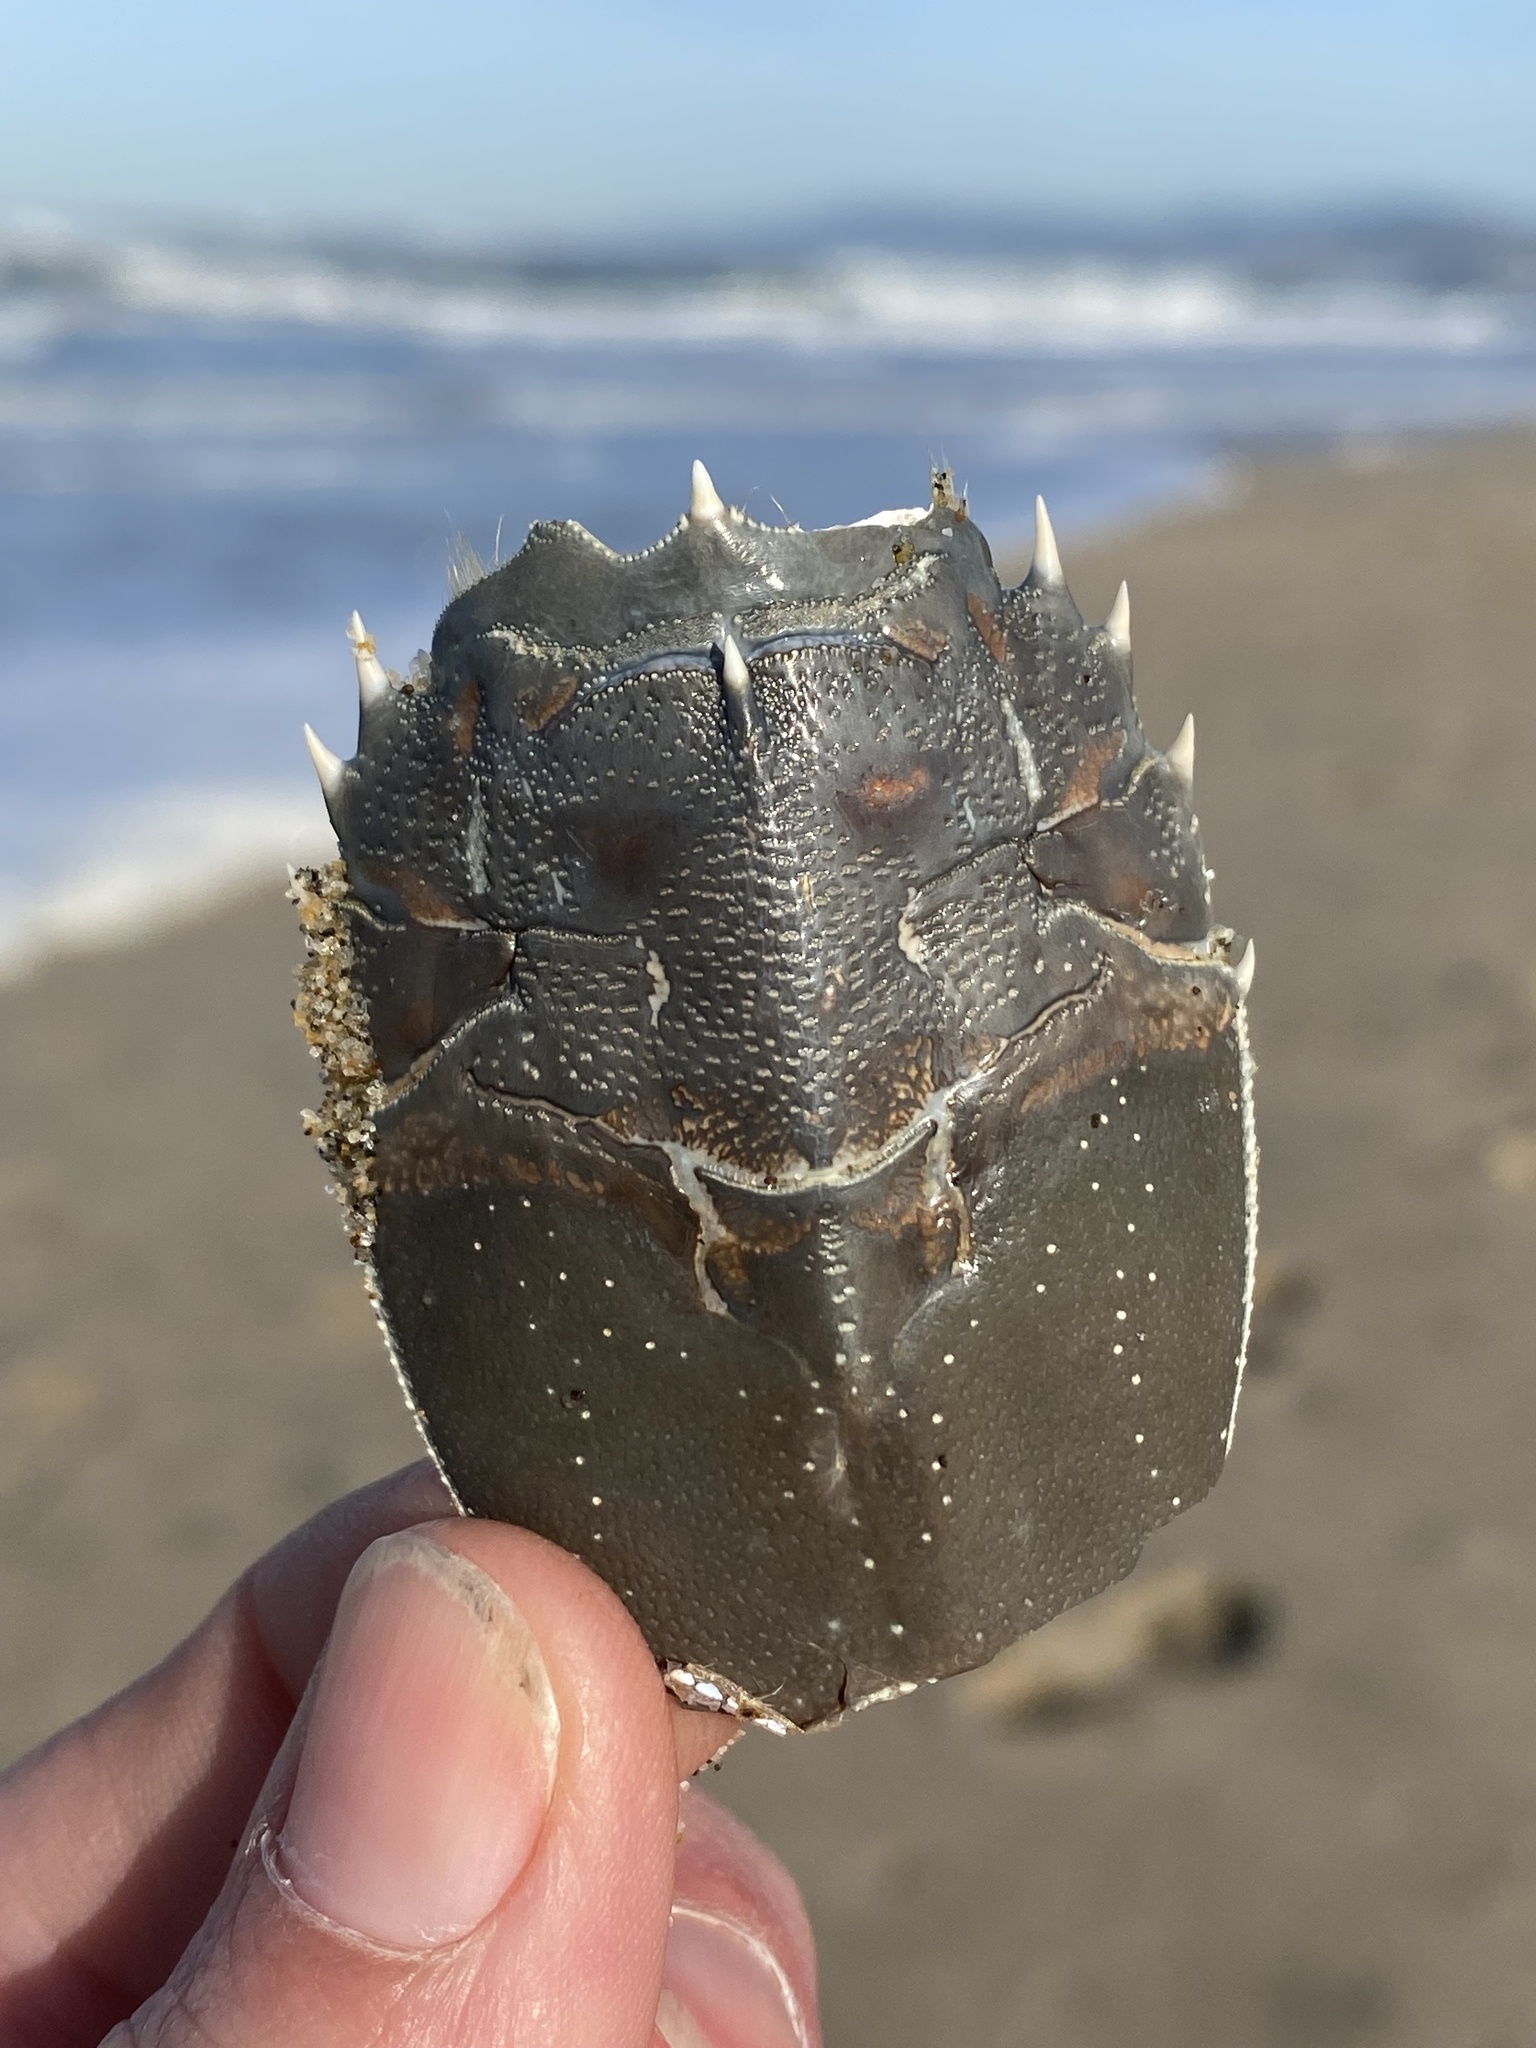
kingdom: Animalia
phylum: Arthropoda
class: Malacostraca
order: Decapoda
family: Blepharipodidae
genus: Blepharipoda
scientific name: Blepharipoda occidentalis
